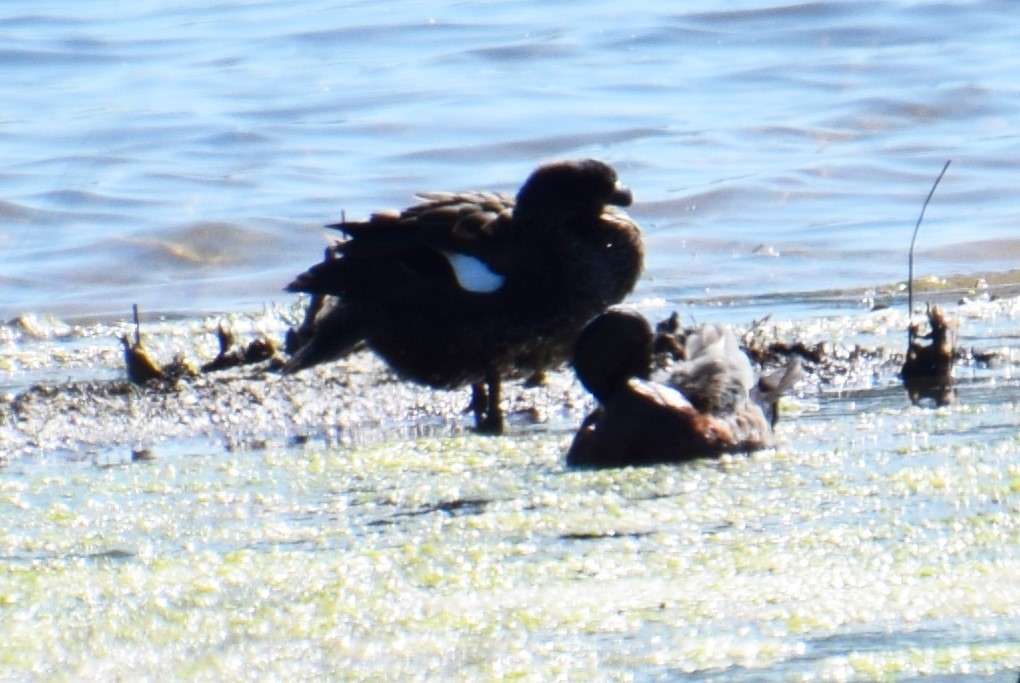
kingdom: Animalia
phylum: Chordata
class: Aves
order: Anseriformes
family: Anatidae
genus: Anas
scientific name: Anas castanea
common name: Chestnut teal
